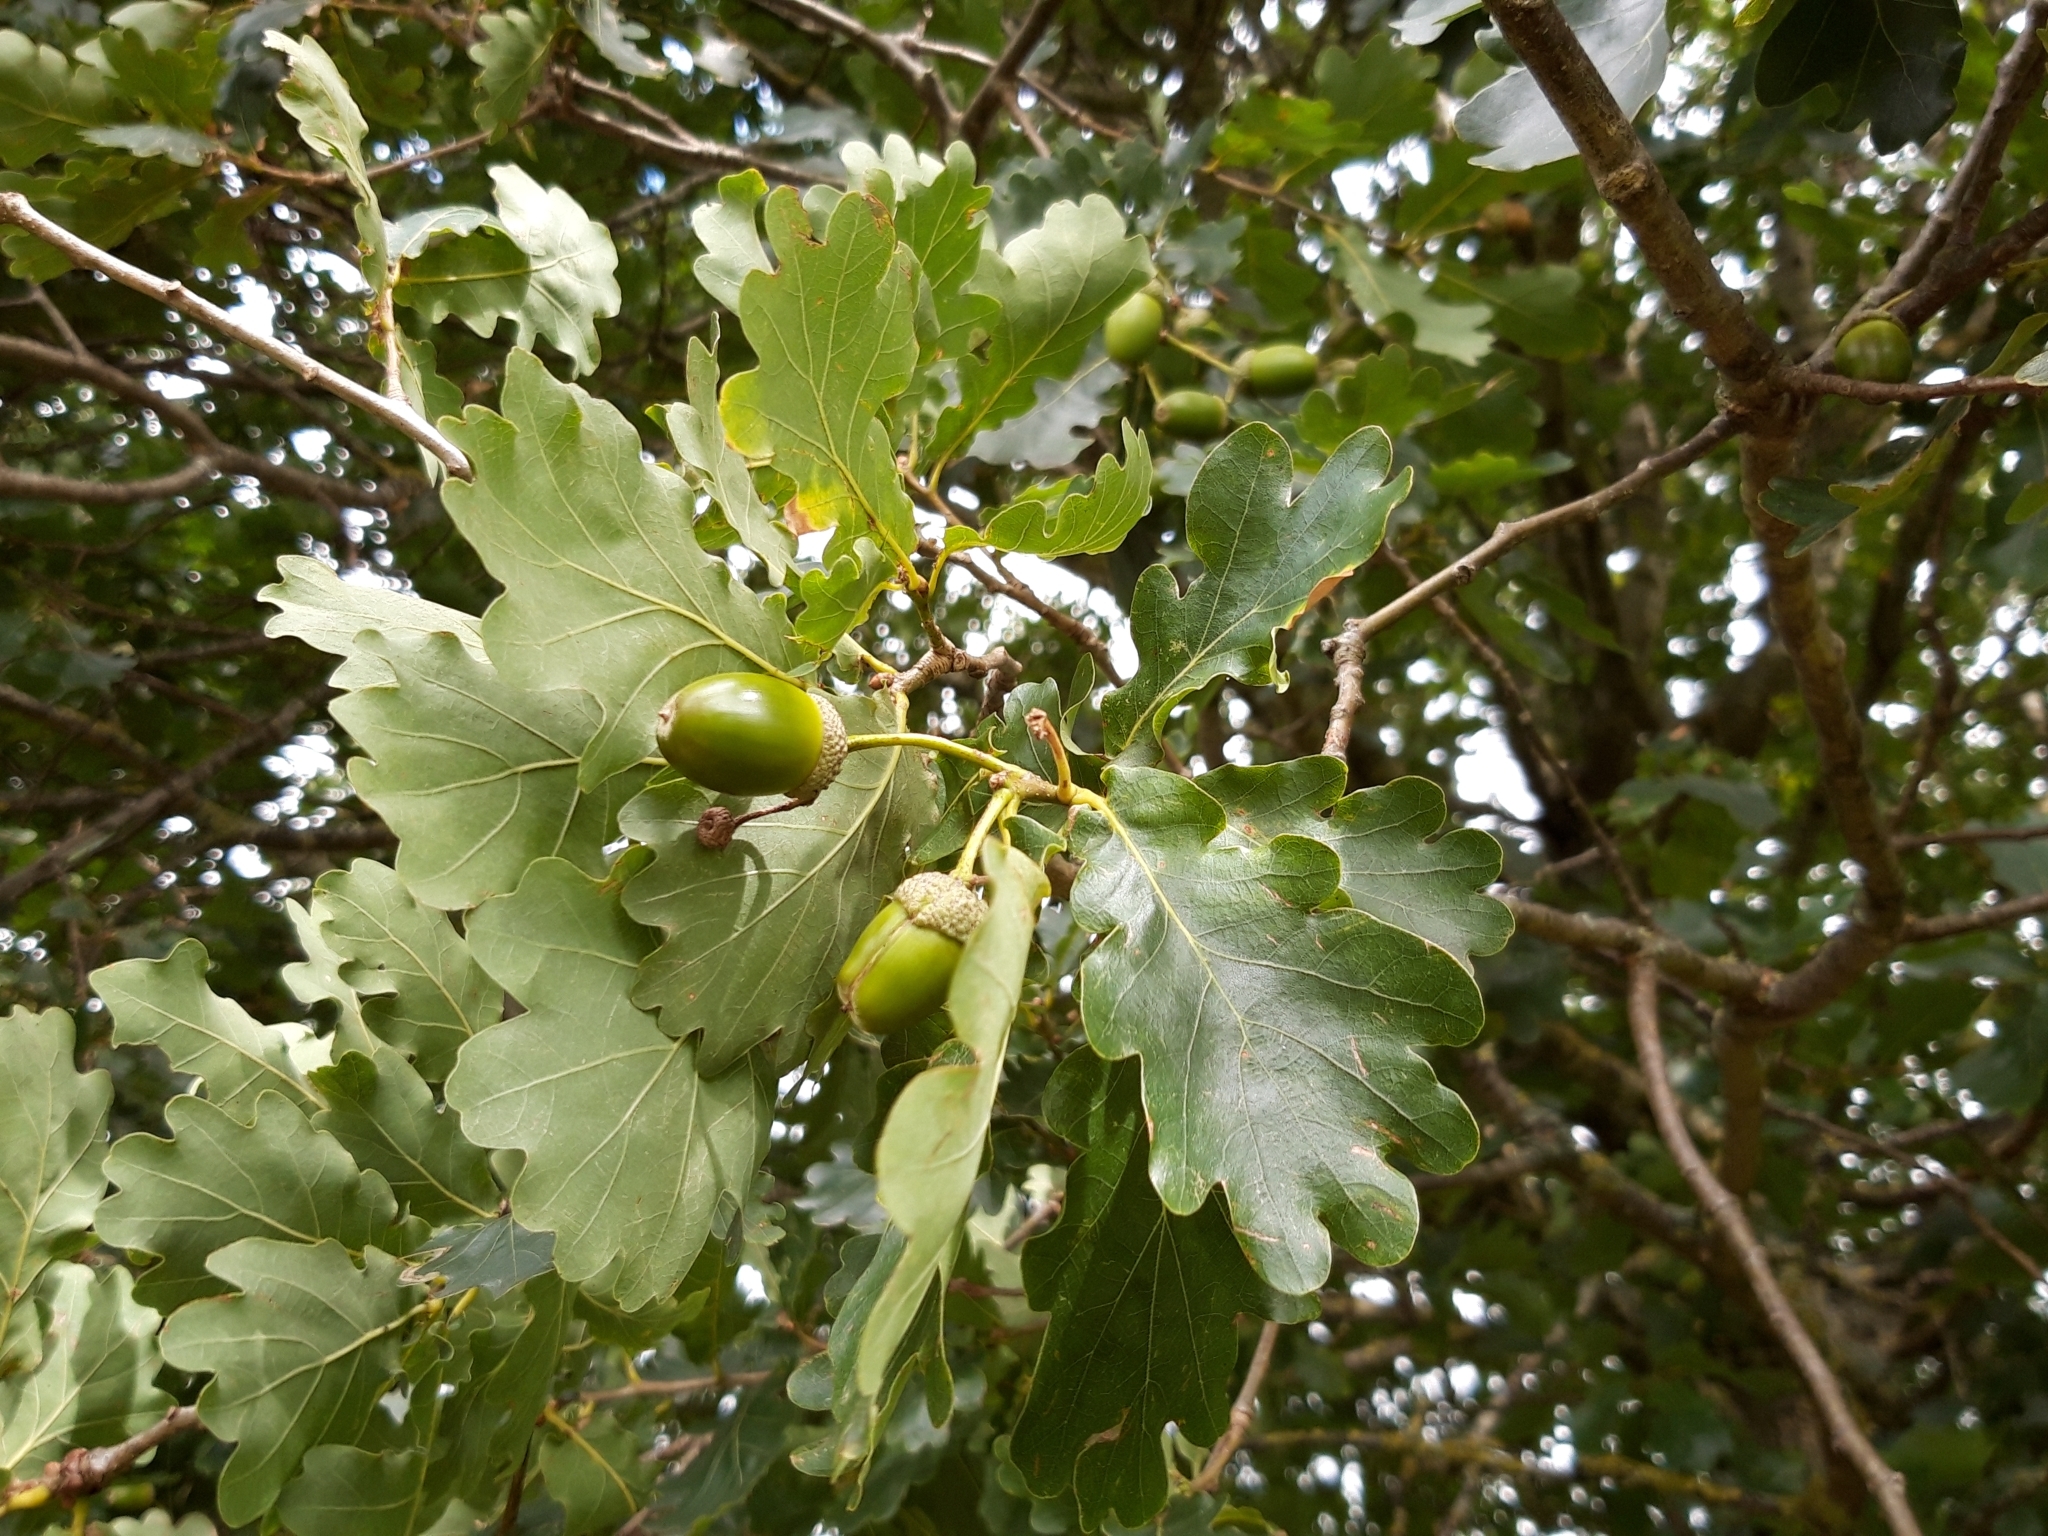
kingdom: Plantae
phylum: Tracheophyta
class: Magnoliopsida
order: Fagales
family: Fagaceae
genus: Quercus
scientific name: Quercus robur
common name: Pedunculate oak
